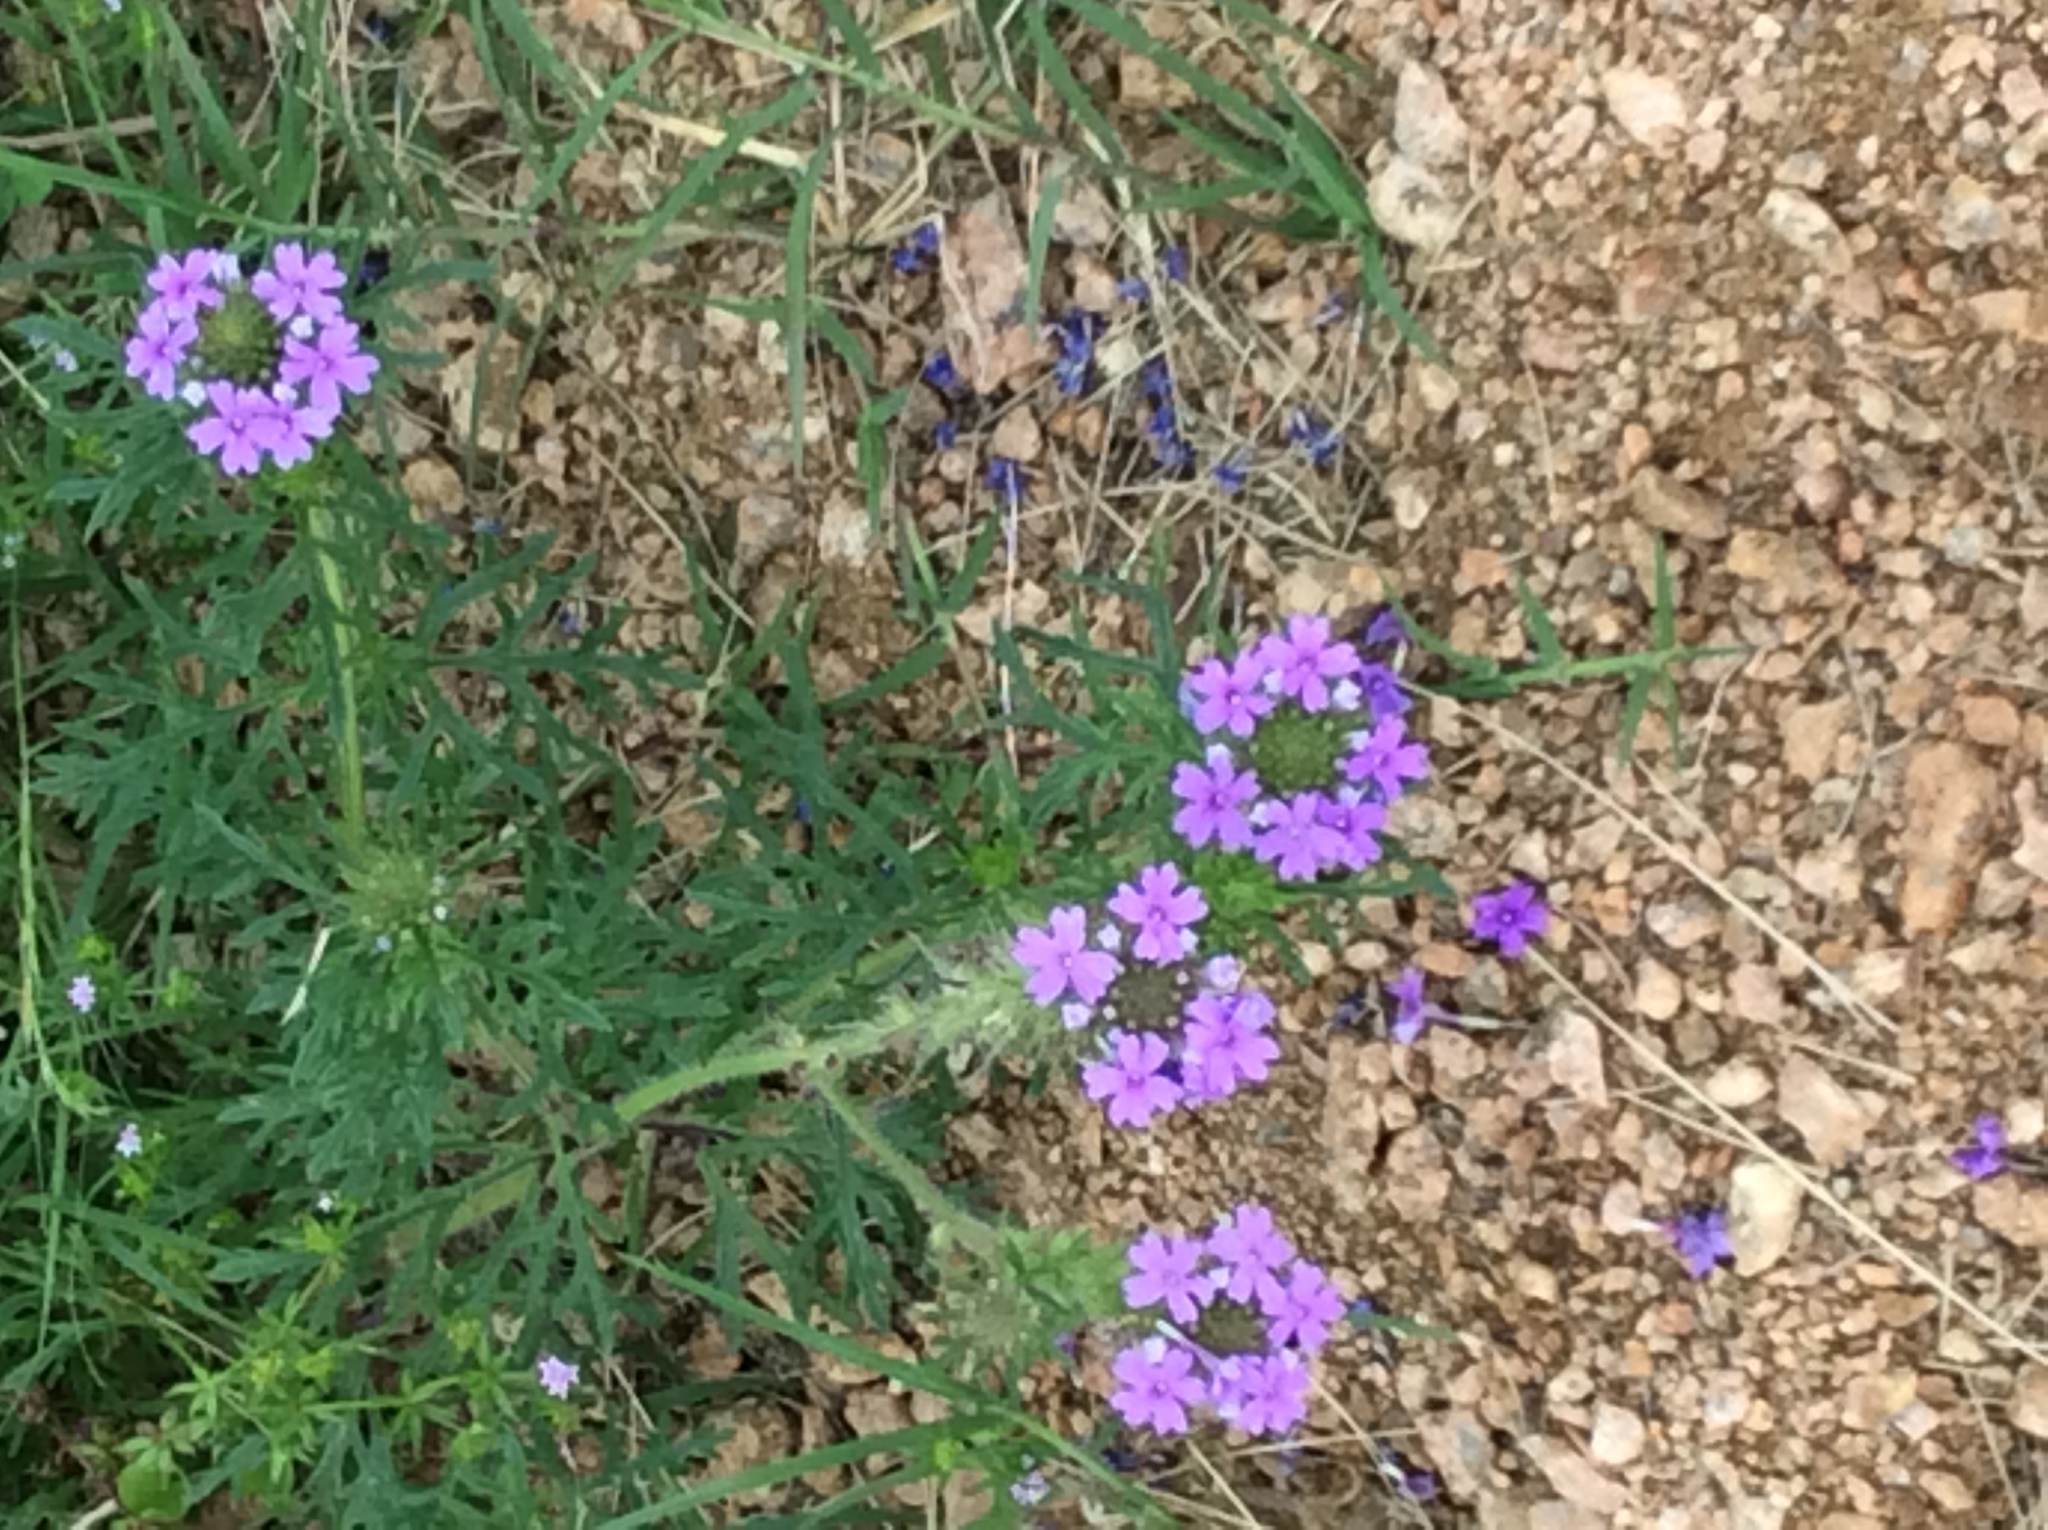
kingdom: Plantae
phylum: Tracheophyta
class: Magnoliopsida
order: Lamiales
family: Verbenaceae
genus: Verbena
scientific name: Verbena bipinnatifida
